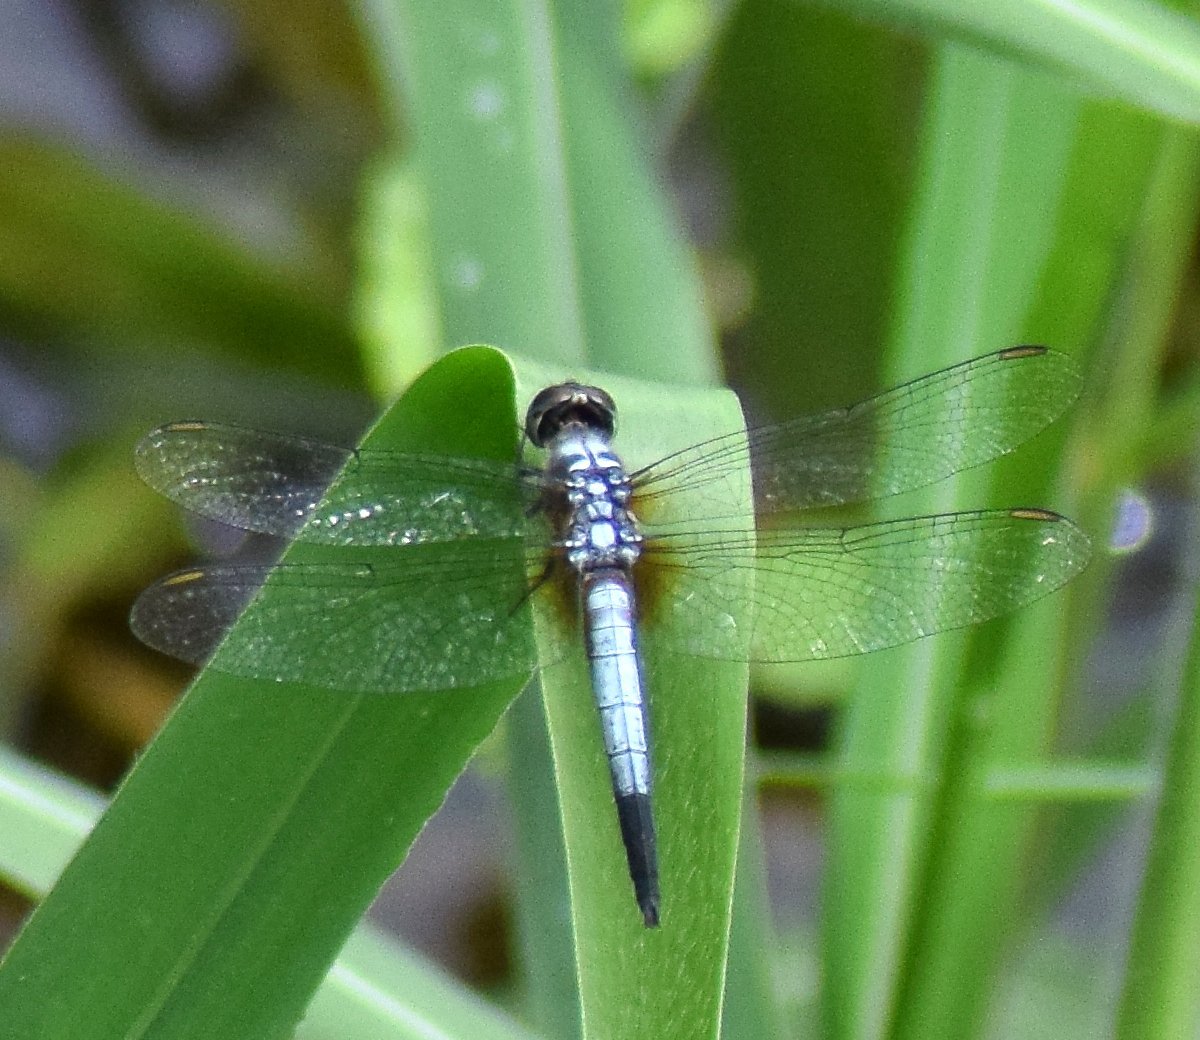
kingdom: Animalia
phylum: Arthropoda
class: Insecta
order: Odonata
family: Libellulidae
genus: Brachydiplax
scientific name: Brachydiplax chalybea
